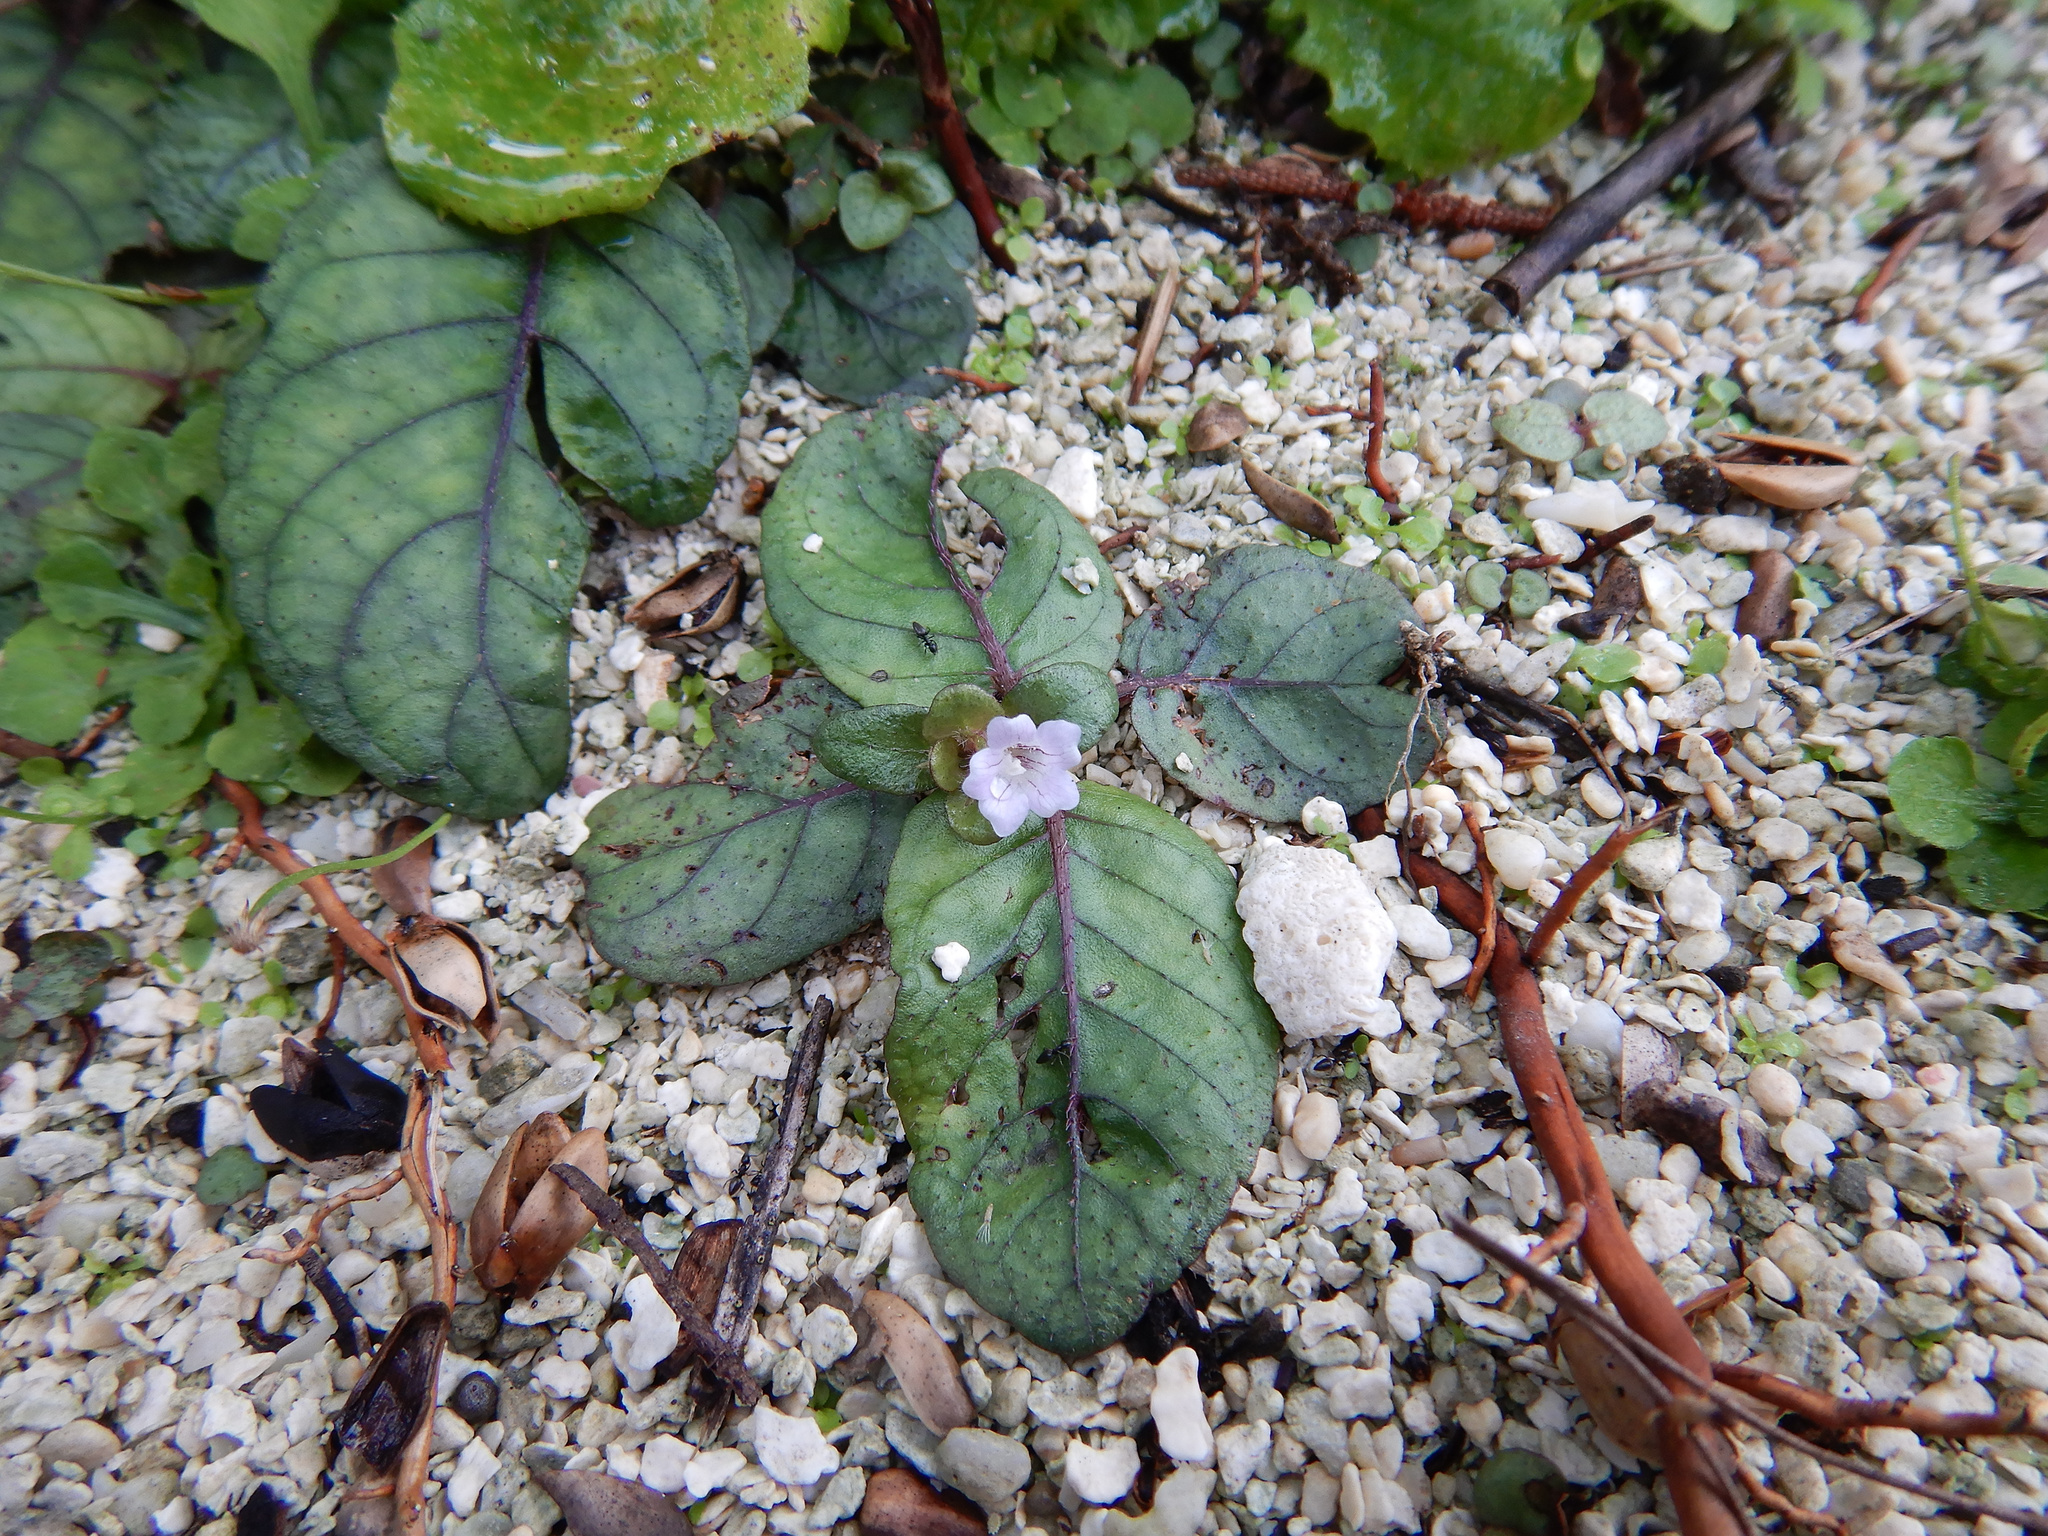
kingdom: Plantae
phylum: Tracheophyta
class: Magnoliopsida
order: Lamiales
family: Acanthaceae
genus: Strobilanthes
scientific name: Strobilanthes alternata
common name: Red ivy
